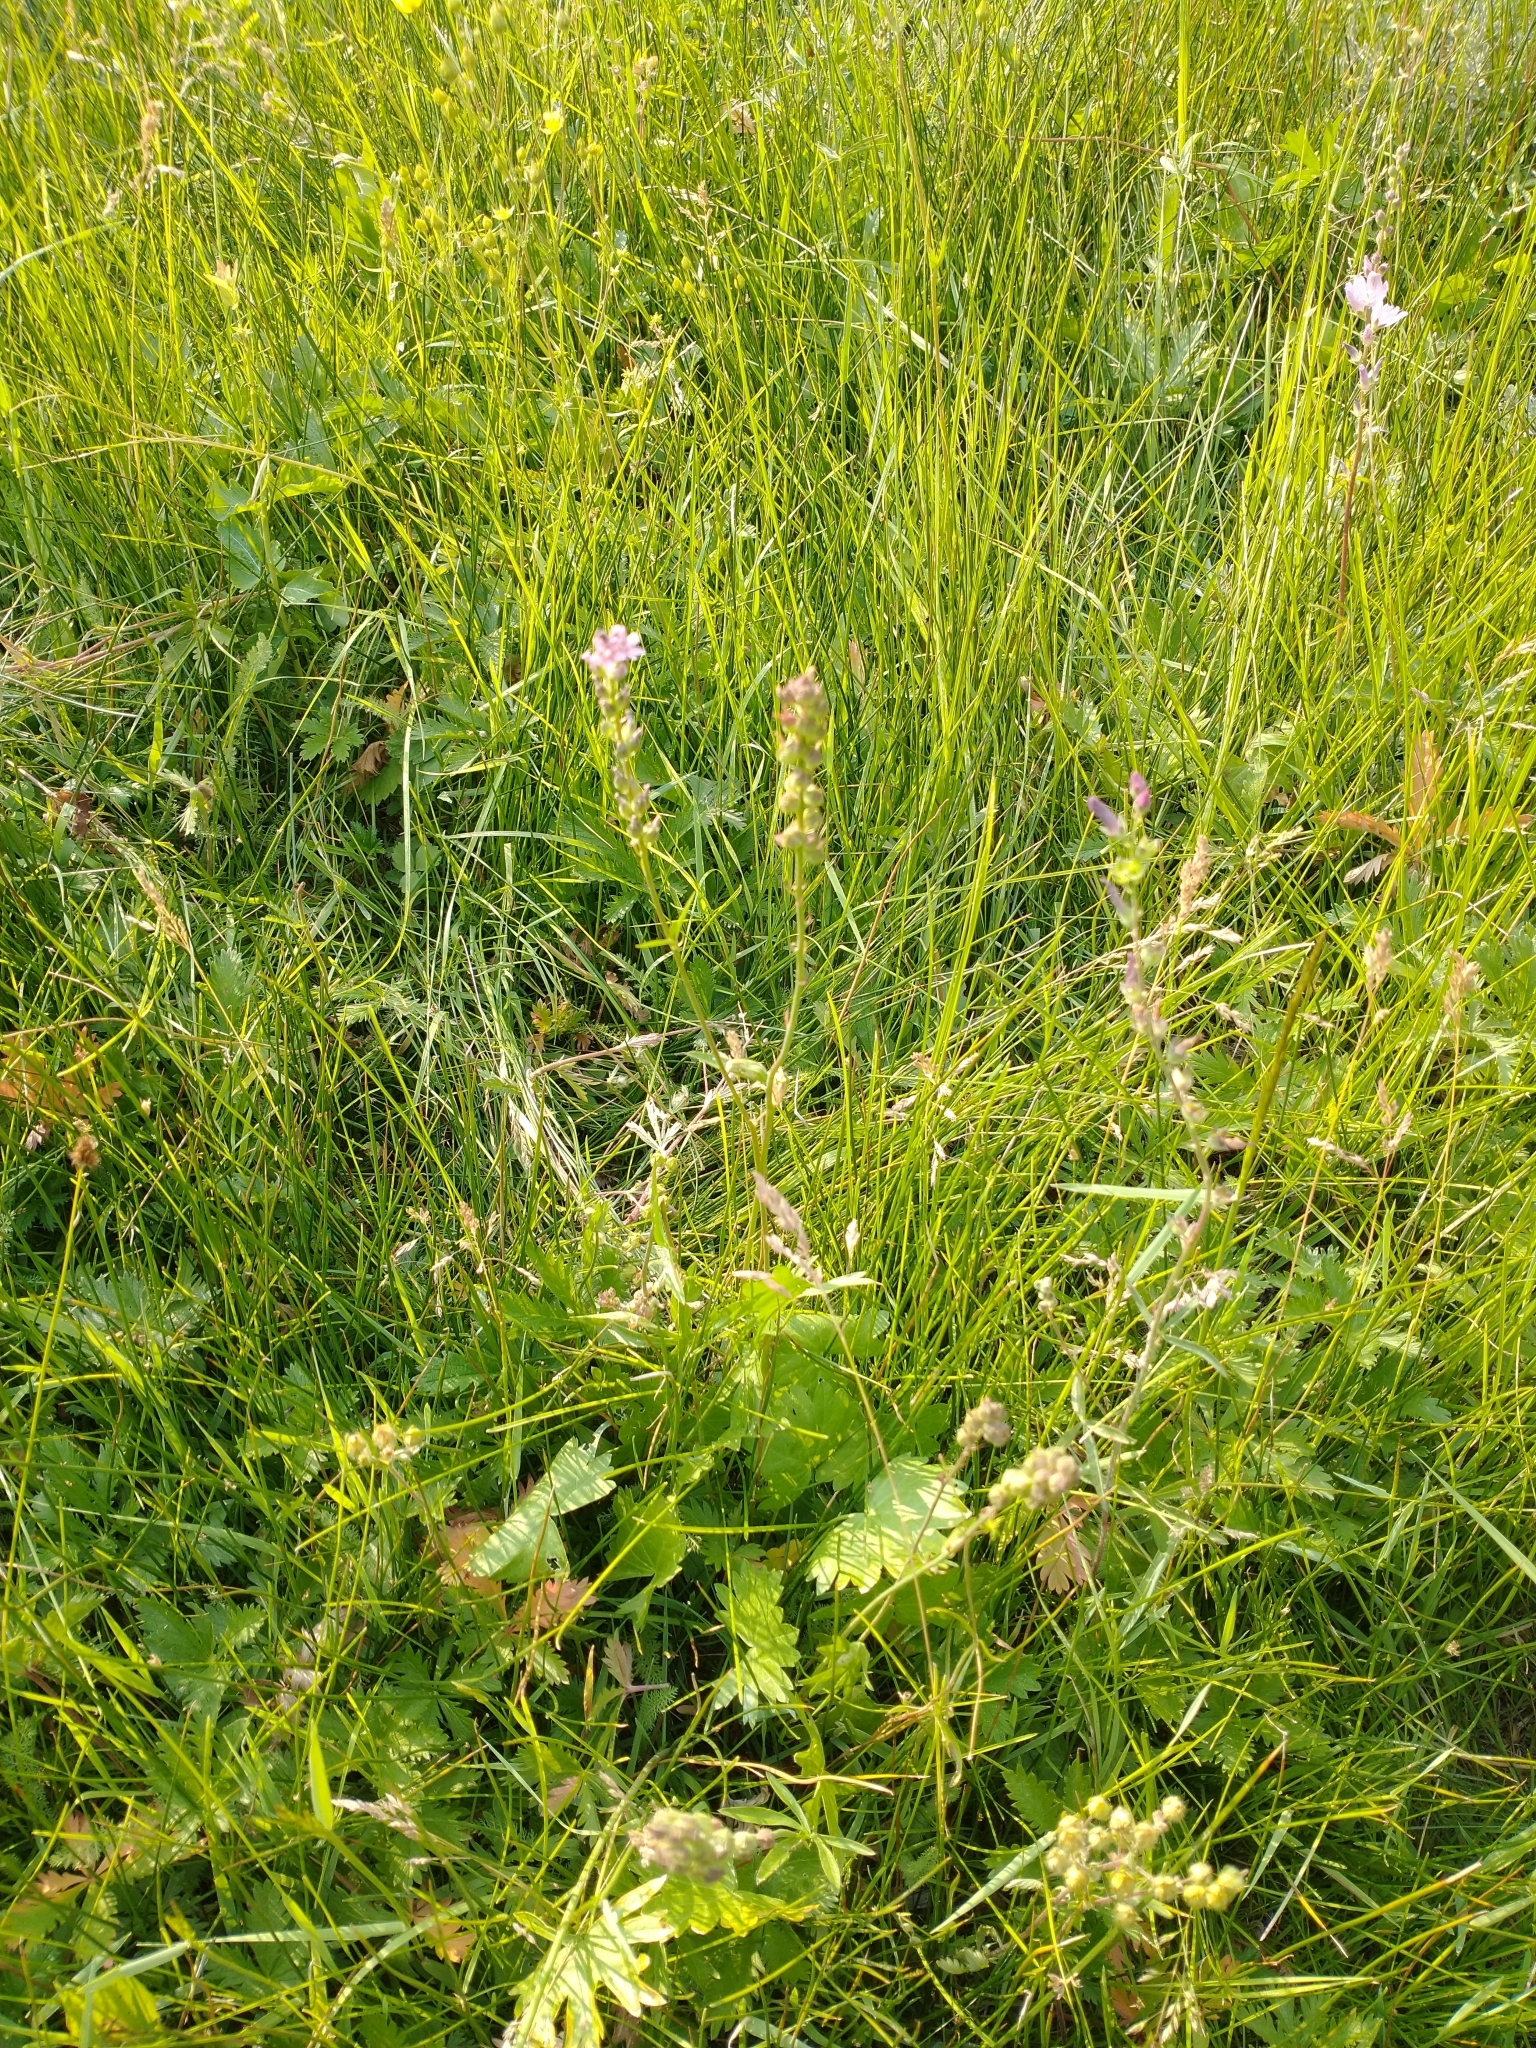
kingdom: Plantae
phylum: Tracheophyta
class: Magnoliopsida
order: Malvales
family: Malvaceae
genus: Sidalcea
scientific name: Sidalcea oregana
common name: Oregon checker-mallow
